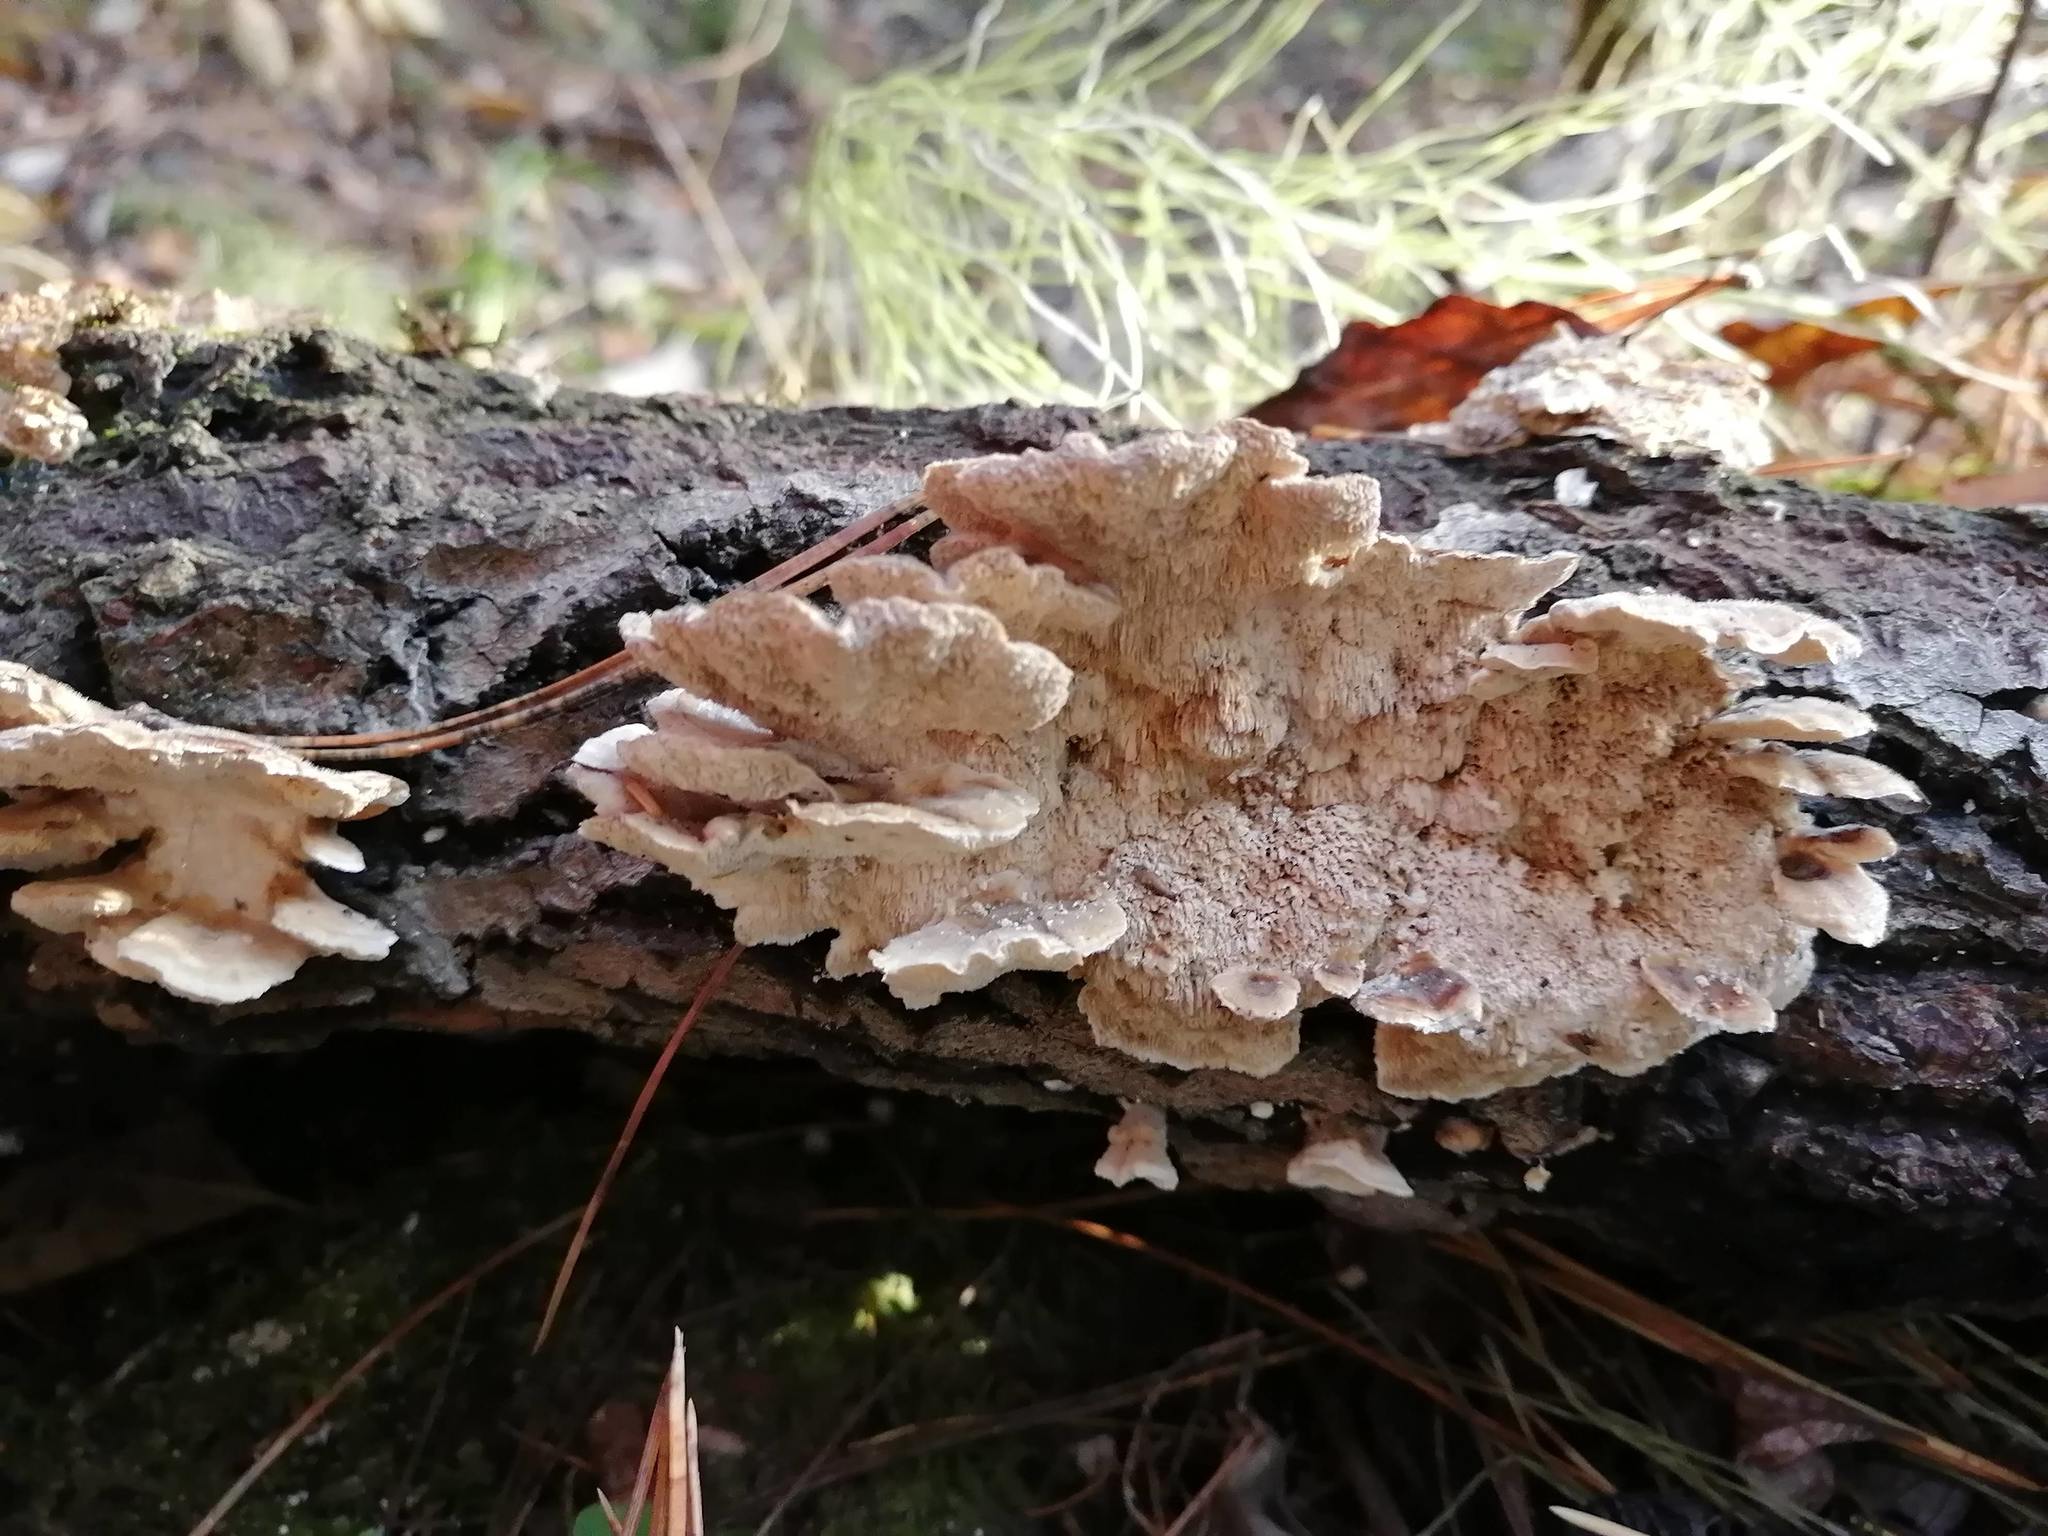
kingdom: Fungi
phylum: Basidiomycota
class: Agaricomycetes
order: Polyporales
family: Polyporaceae
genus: Trametes
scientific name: Trametes ochracea
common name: Ochre bracket
